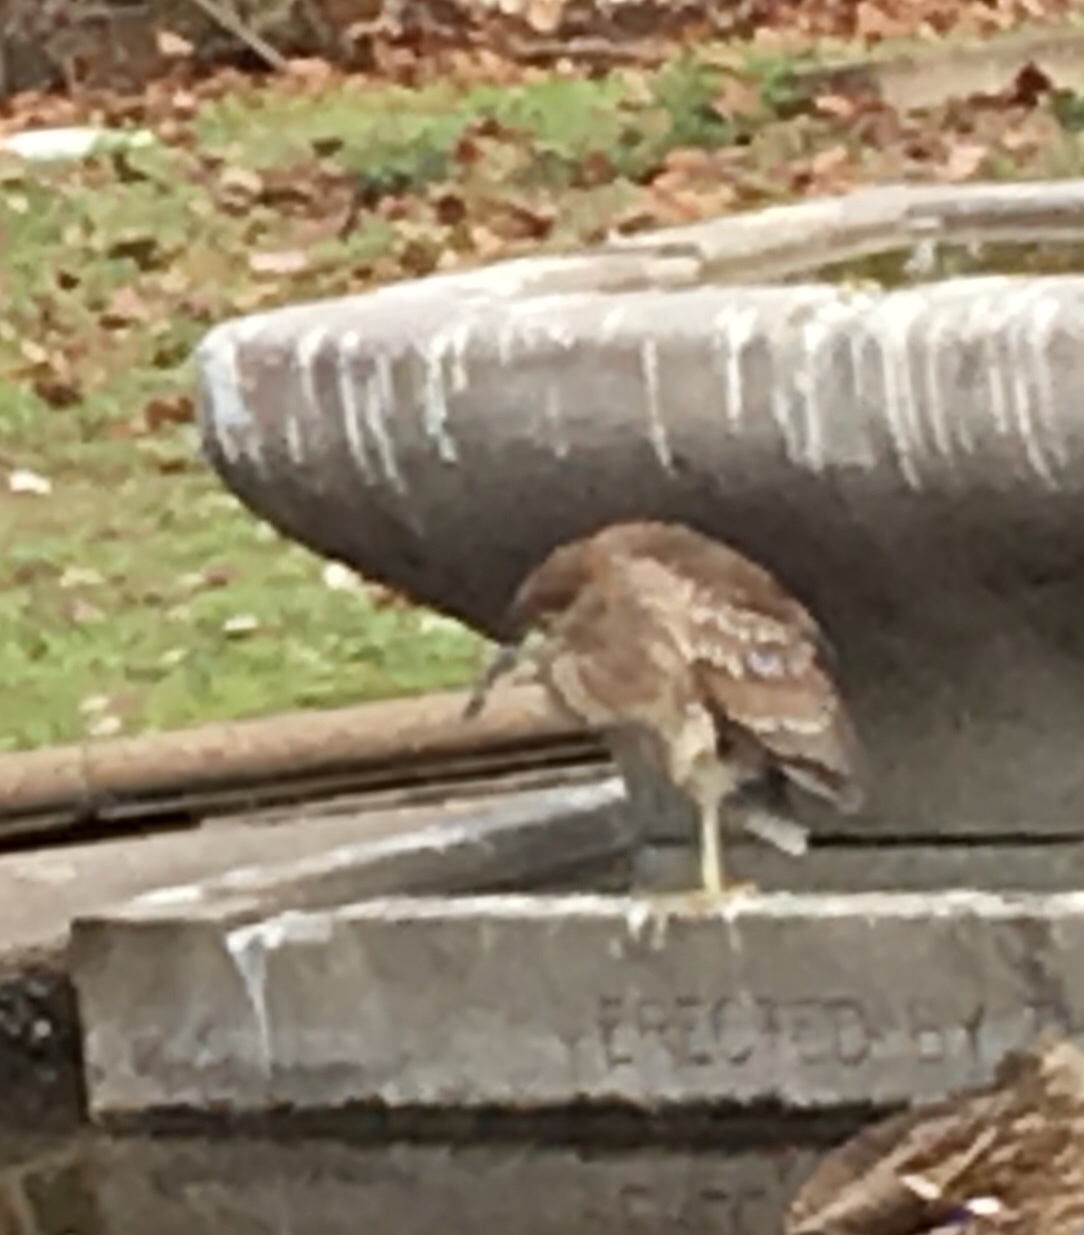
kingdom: Animalia
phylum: Chordata
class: Aves
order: Pelecaniformes
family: Ardeidae
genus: Nycticorax
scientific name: Nycticorax nycticorax
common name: Black-crowned night heron
